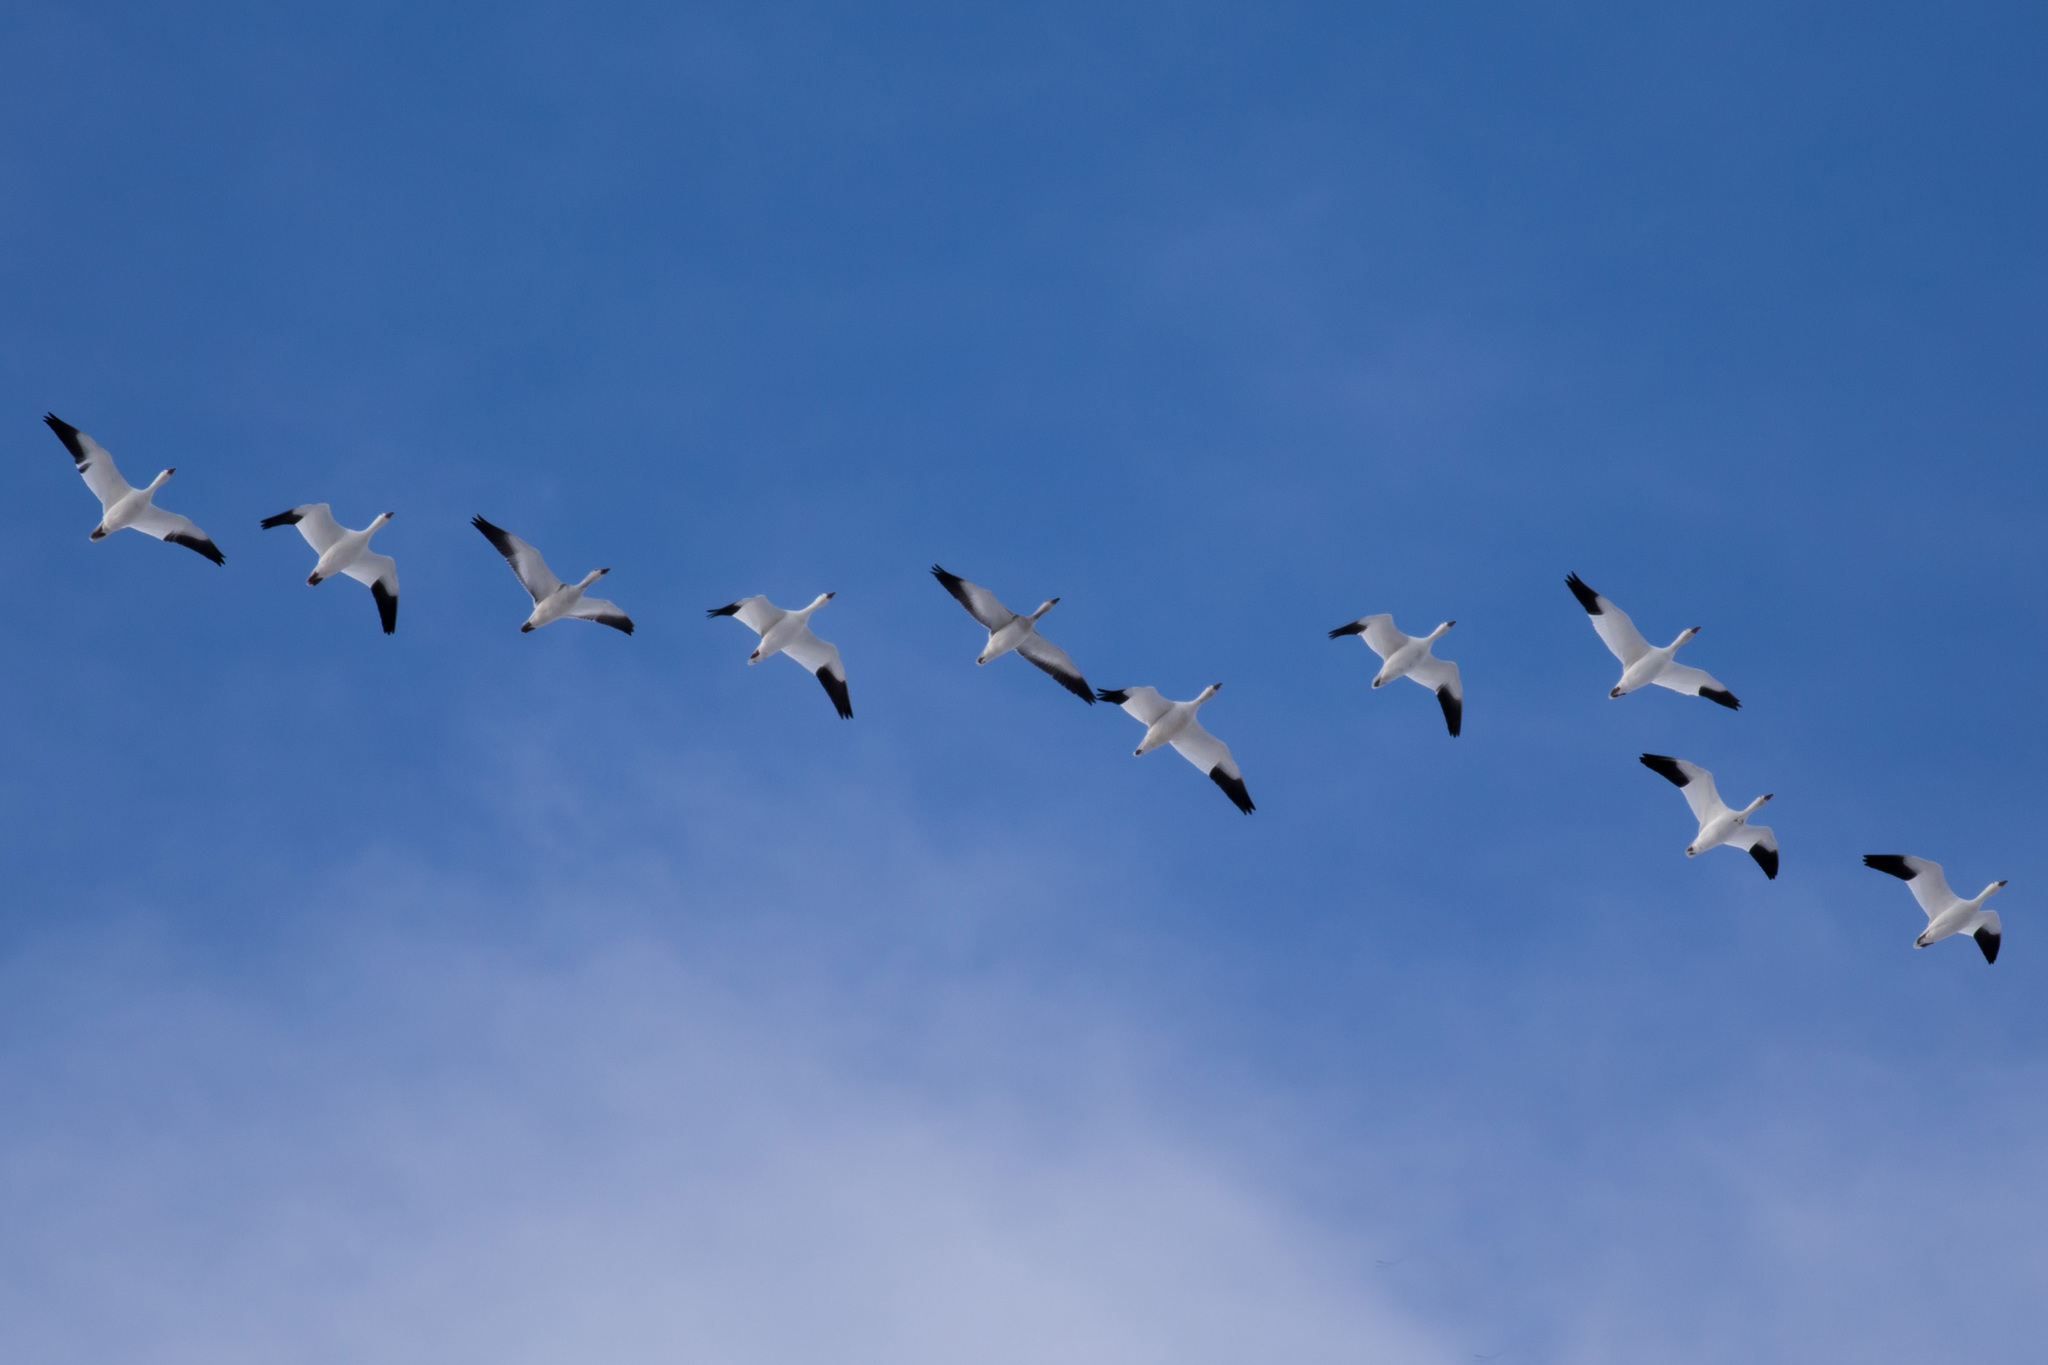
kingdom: Animalia
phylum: Chordata
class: Aves
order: Anseriformes
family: Anatidae
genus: Anser
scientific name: Anser caerulescens
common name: Snow goose
